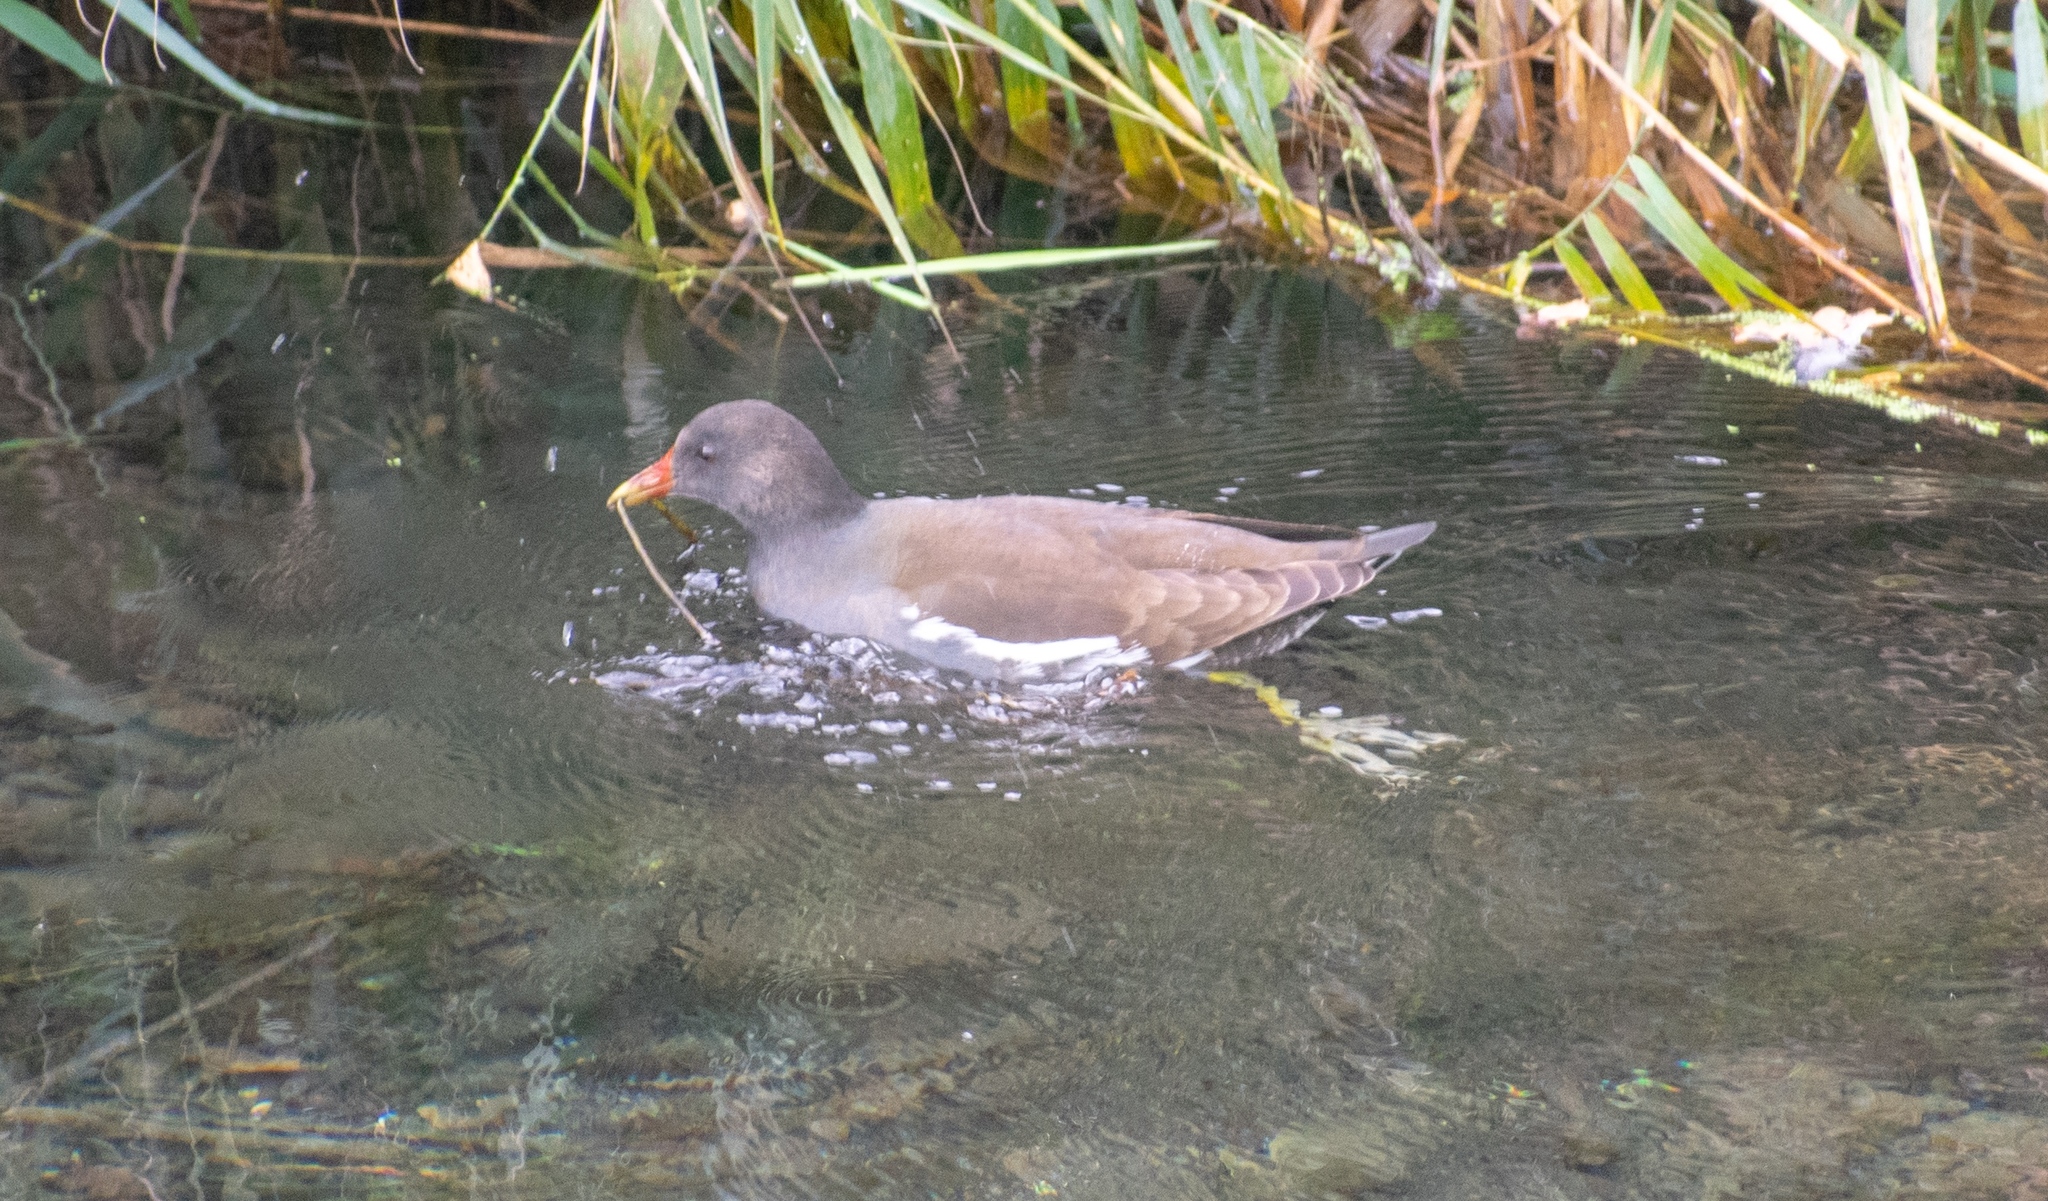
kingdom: Animalia
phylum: Chordata
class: Aves
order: Gruiformes
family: Rallidae
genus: Gallinula
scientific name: Gallinula chloropus
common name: Common moorhen
